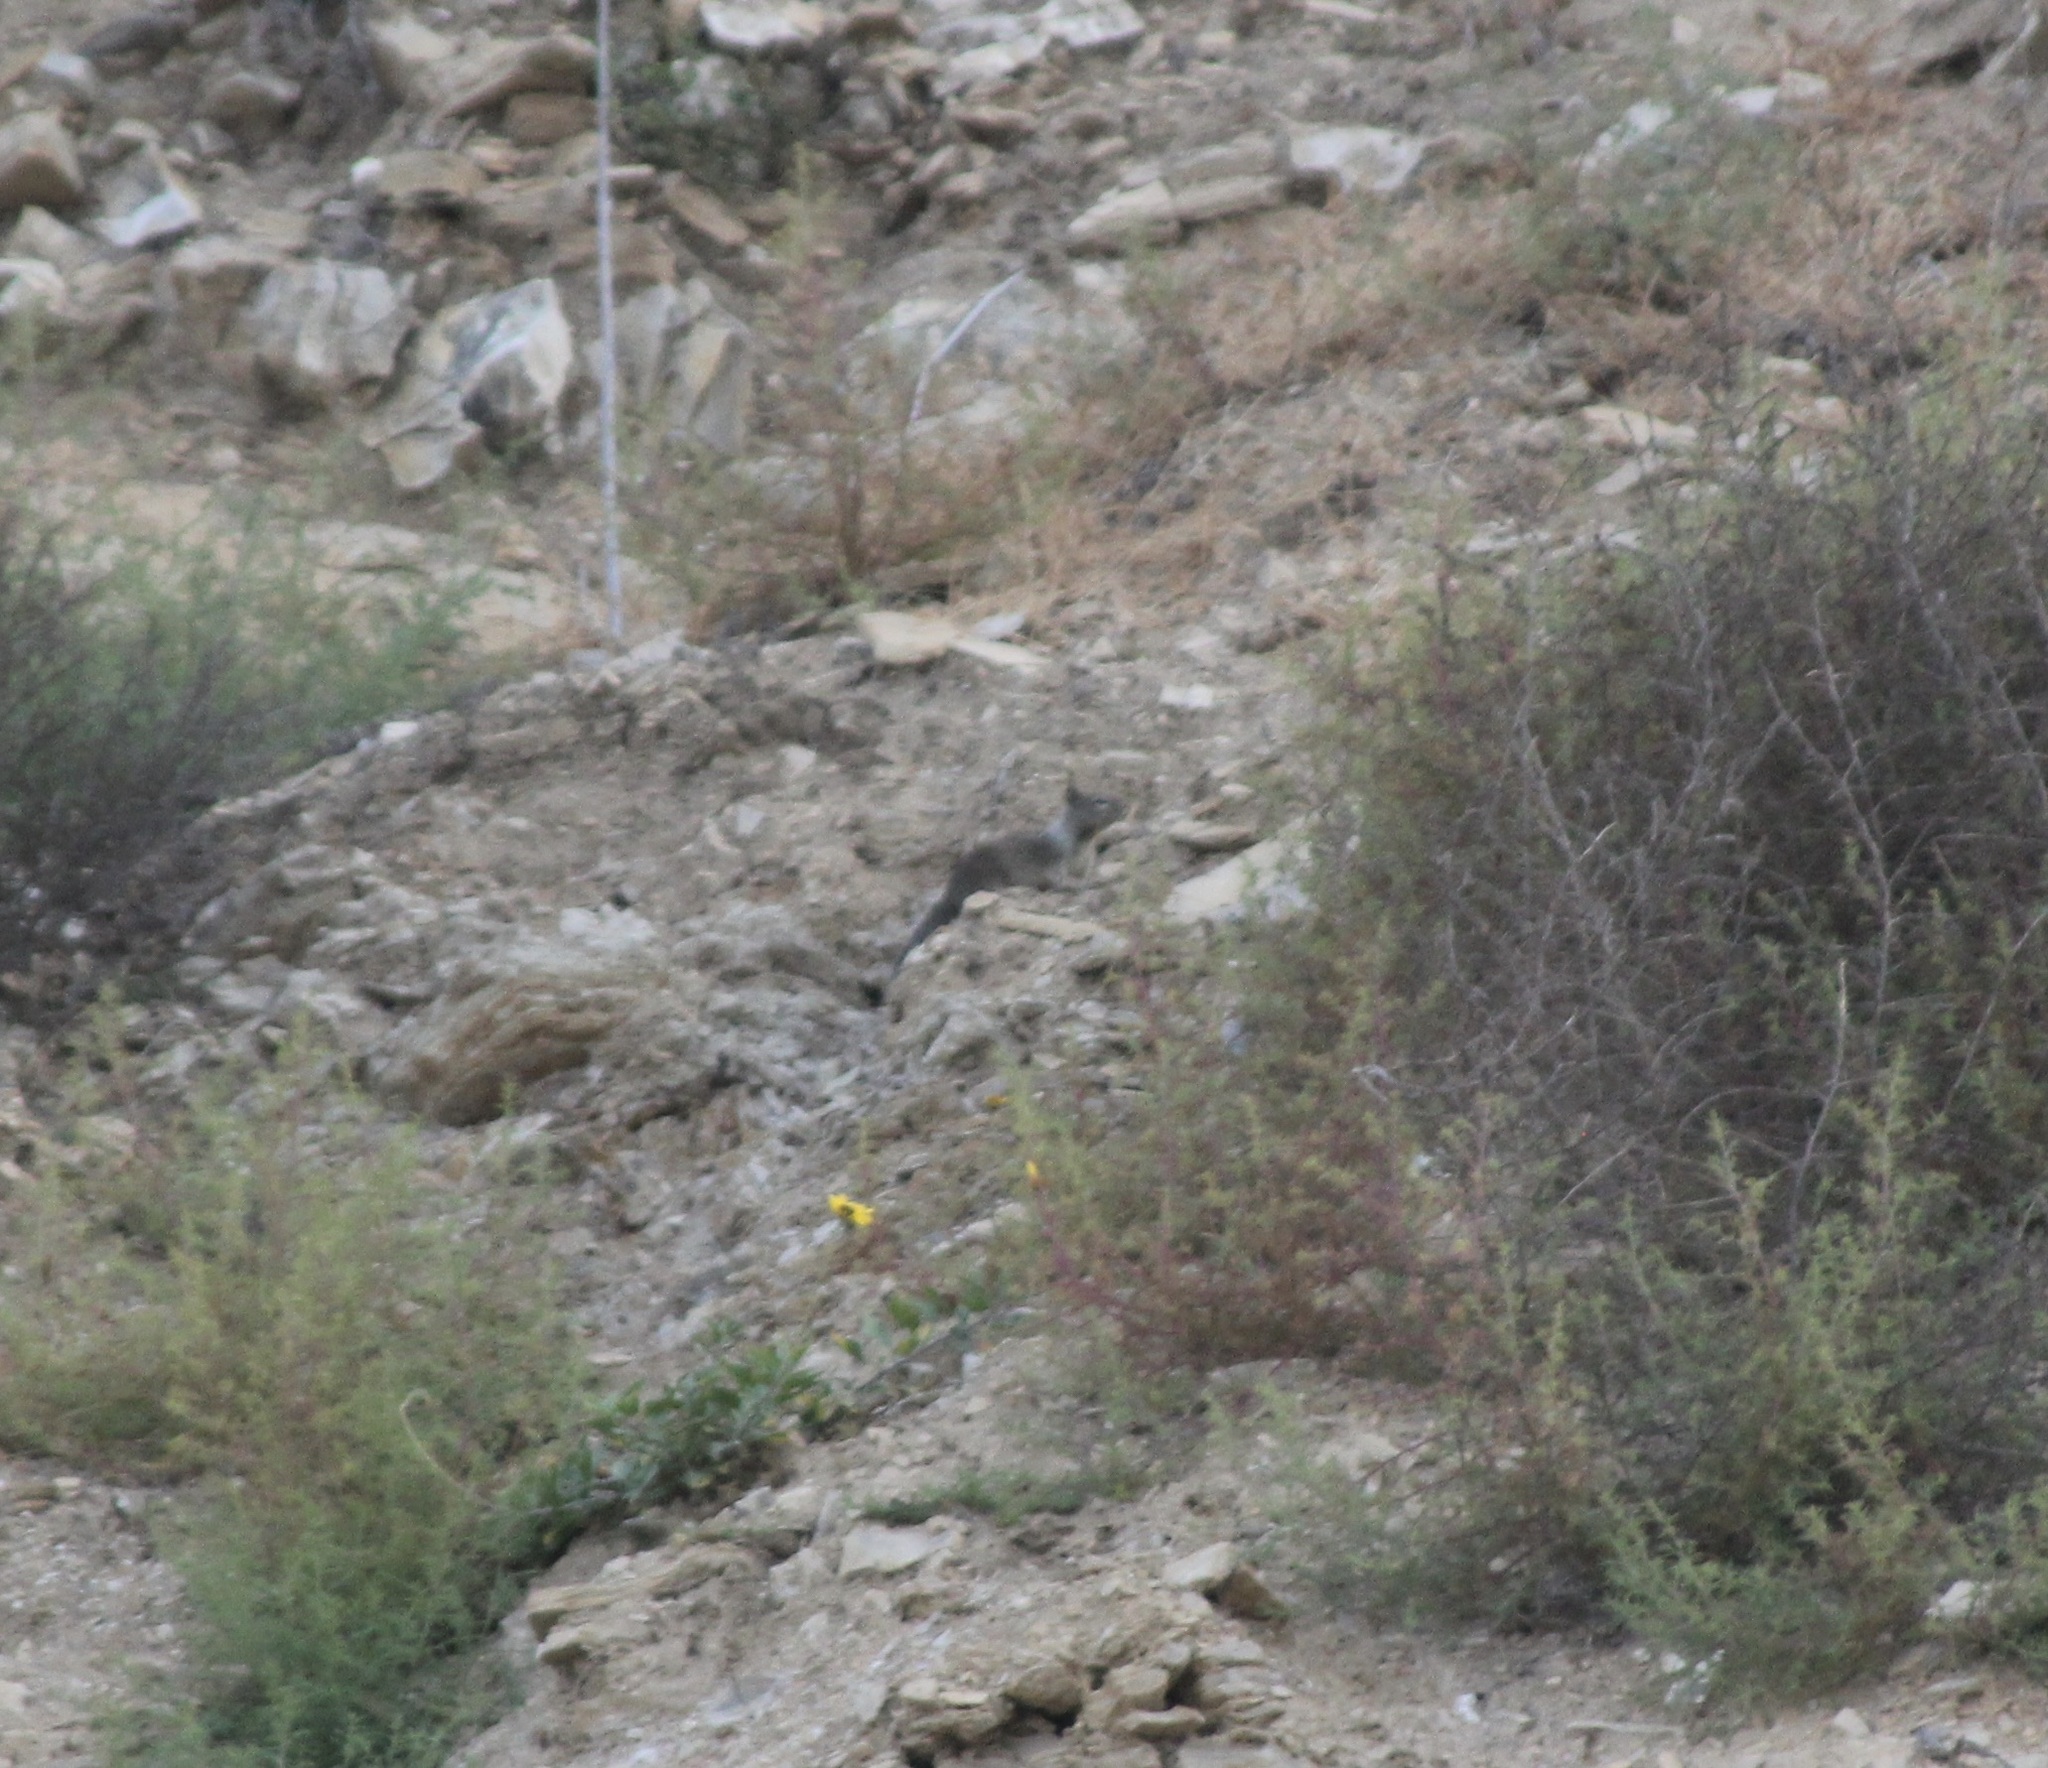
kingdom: Animalia
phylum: Chordata
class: Mammalia
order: Rodentia
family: Sciuridae
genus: Otospermophilus
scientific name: Otospermophilus beecheyi
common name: California ground squirrel
